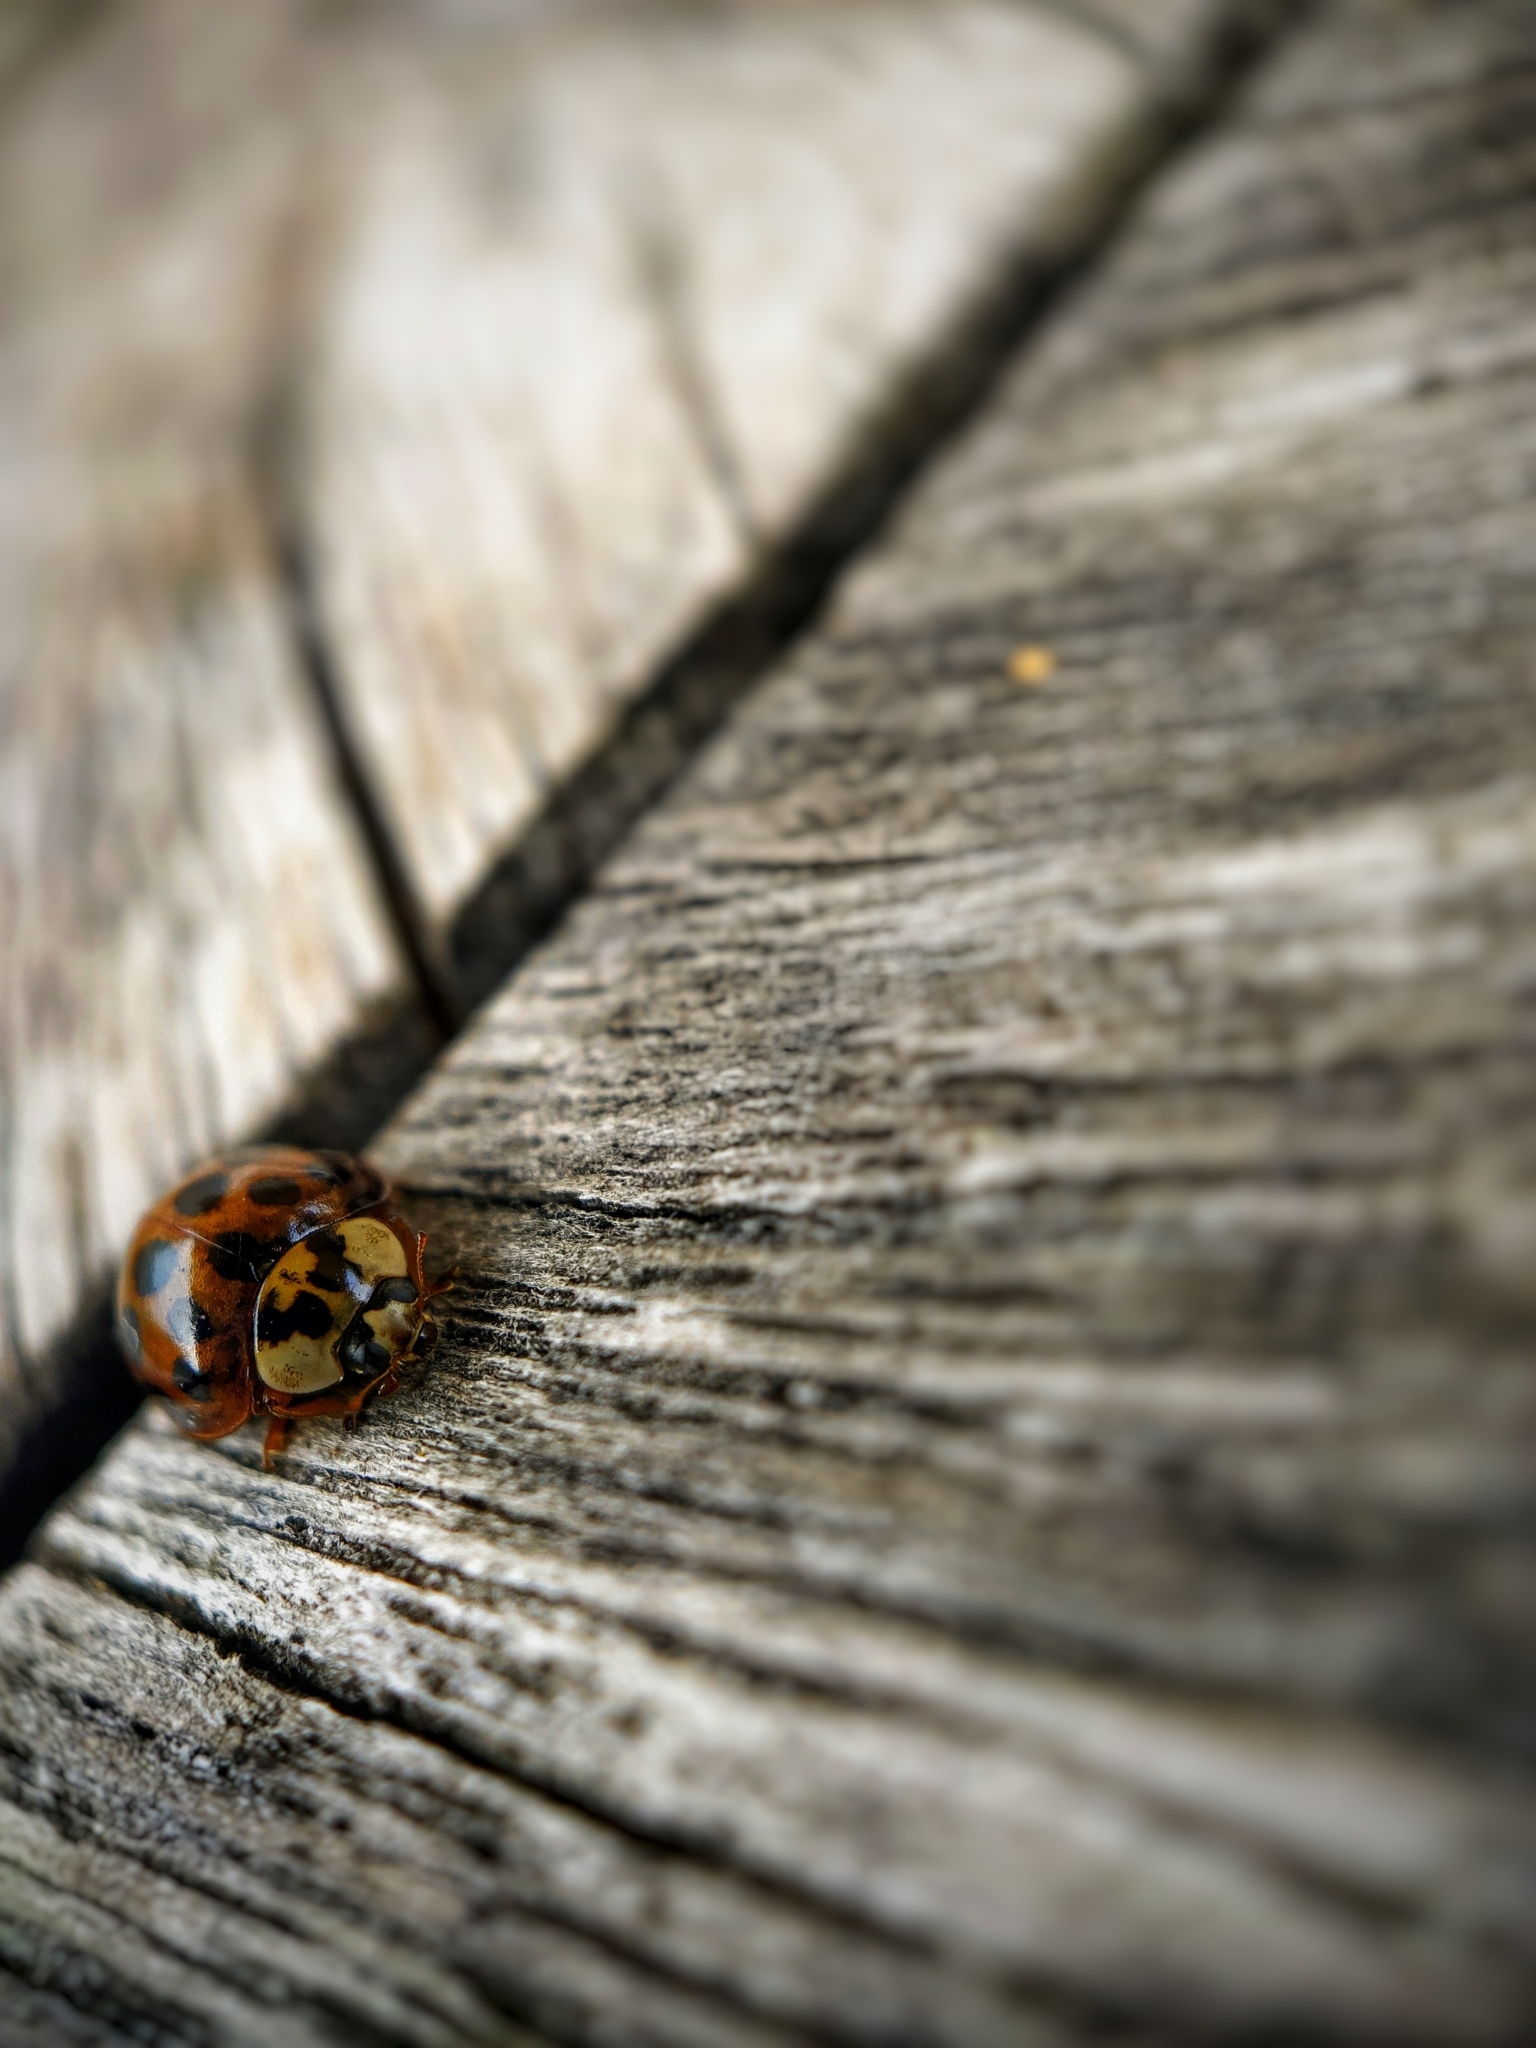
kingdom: Animalia
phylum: Arthropoda
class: Insecta
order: Coleoptera
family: Coccinellidae
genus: Harmonia
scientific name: Harmonia axyridis
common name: Harlequin ladybird
